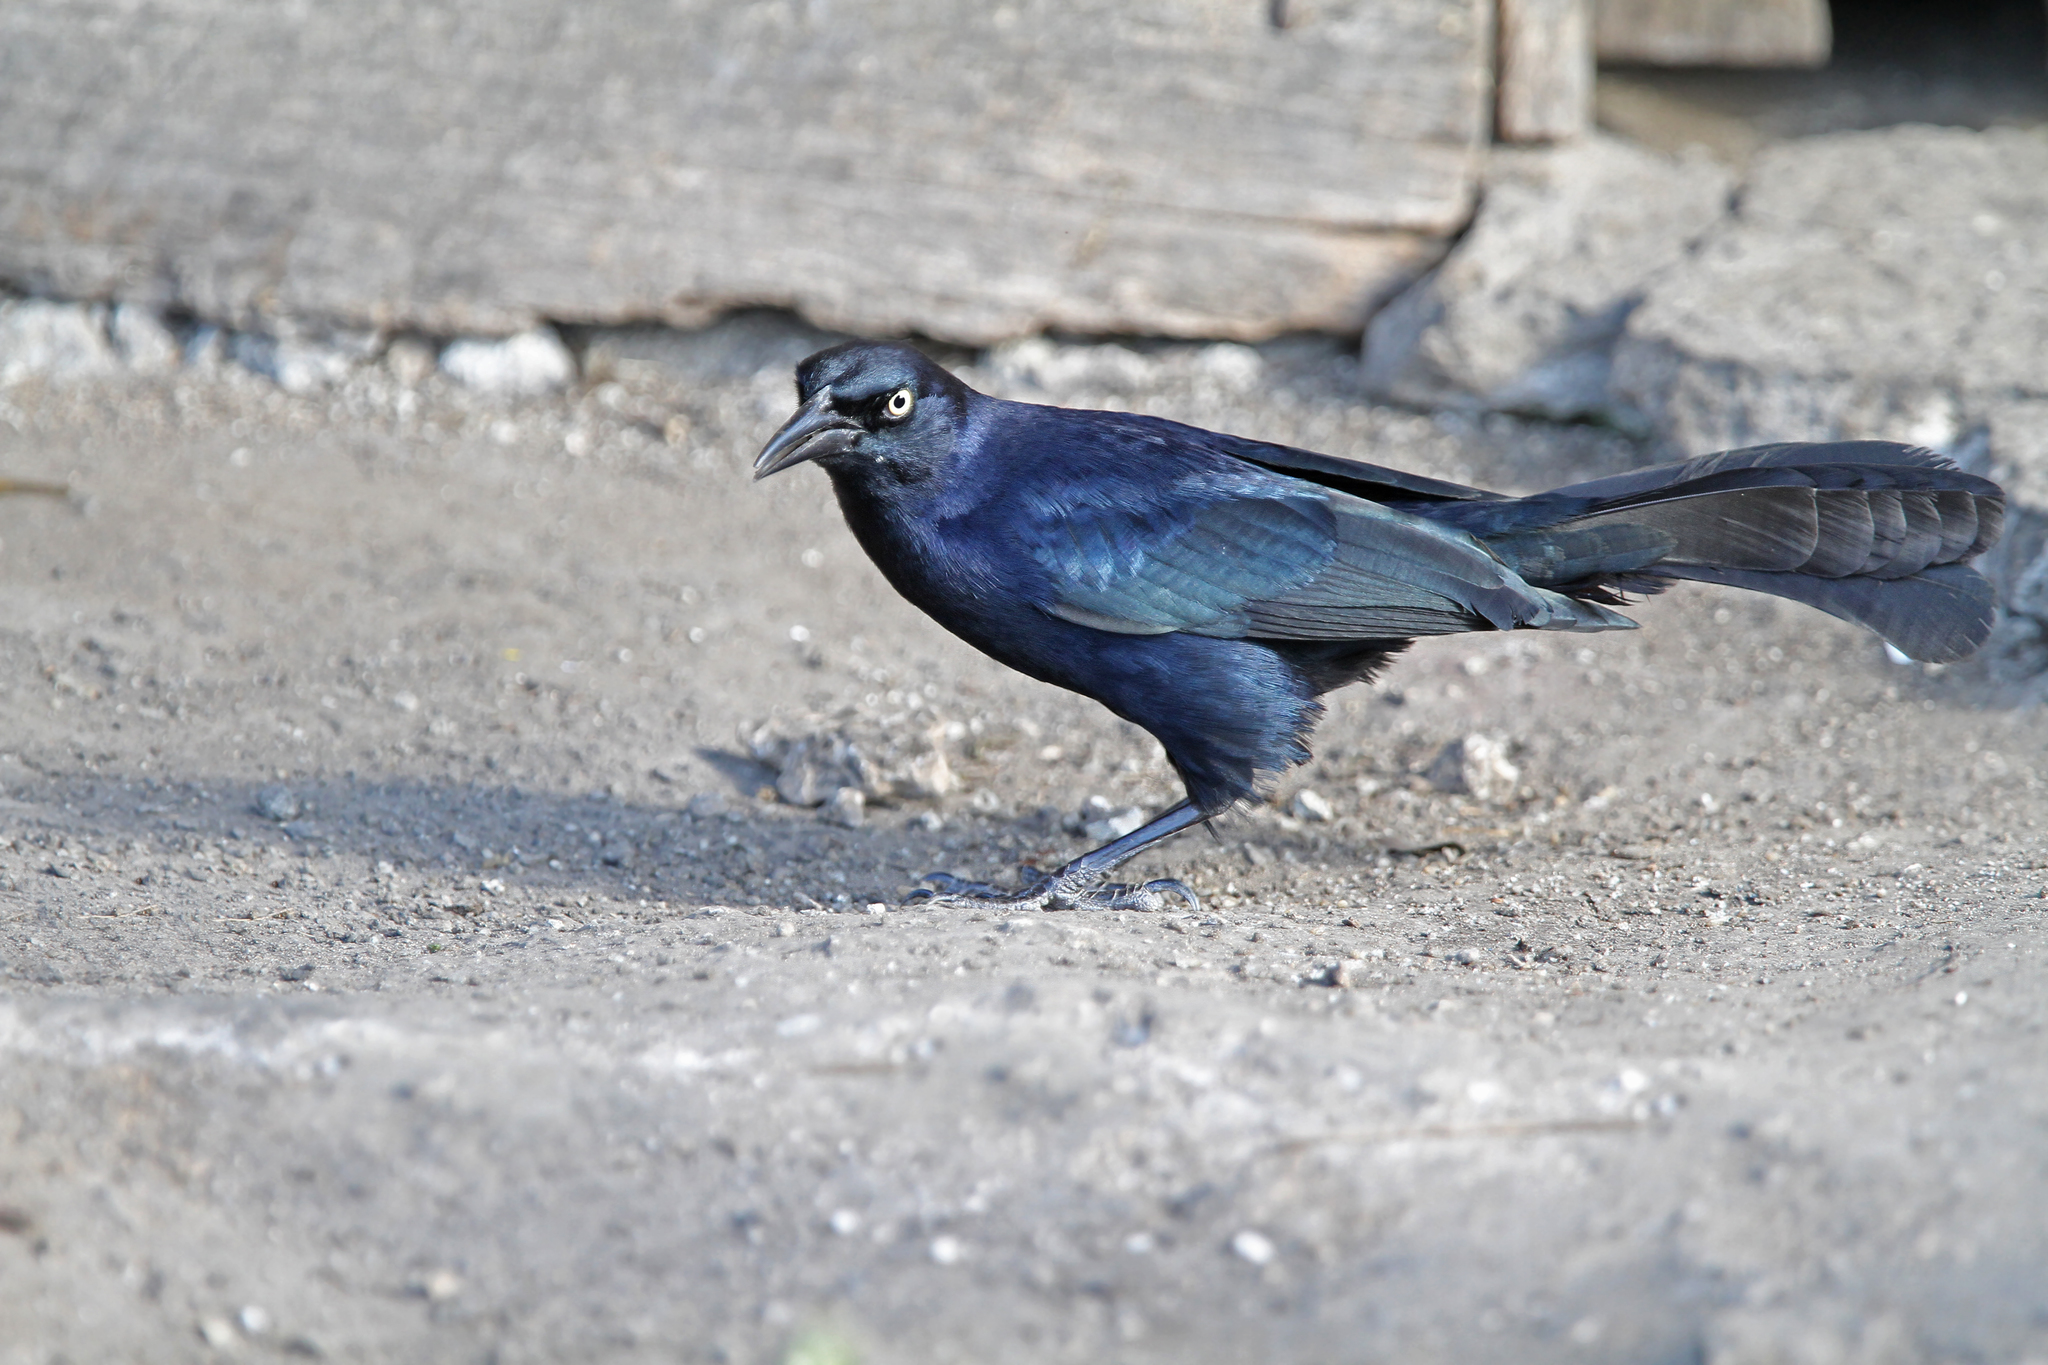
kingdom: Animalia
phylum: Chordata
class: Aves
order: Passeriformes
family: Icteridae
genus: Quiscalus
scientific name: Quiscalus niger
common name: Greater antillean grackle
